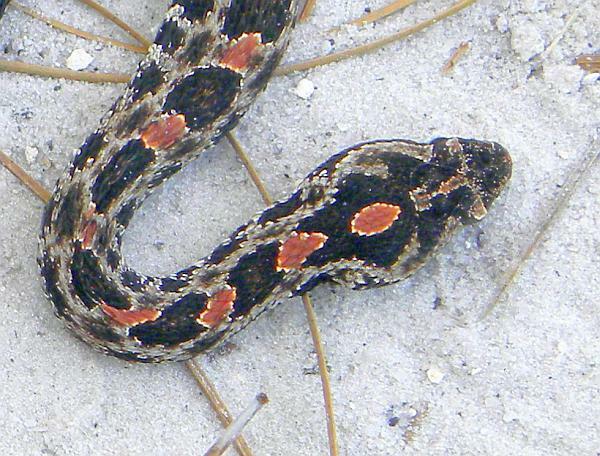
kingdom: Animalia
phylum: Chordata
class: Squamata
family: Viperidae
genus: Sistrurus
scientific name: Sistrurus miliarius
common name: Pygmy rattlesnake
